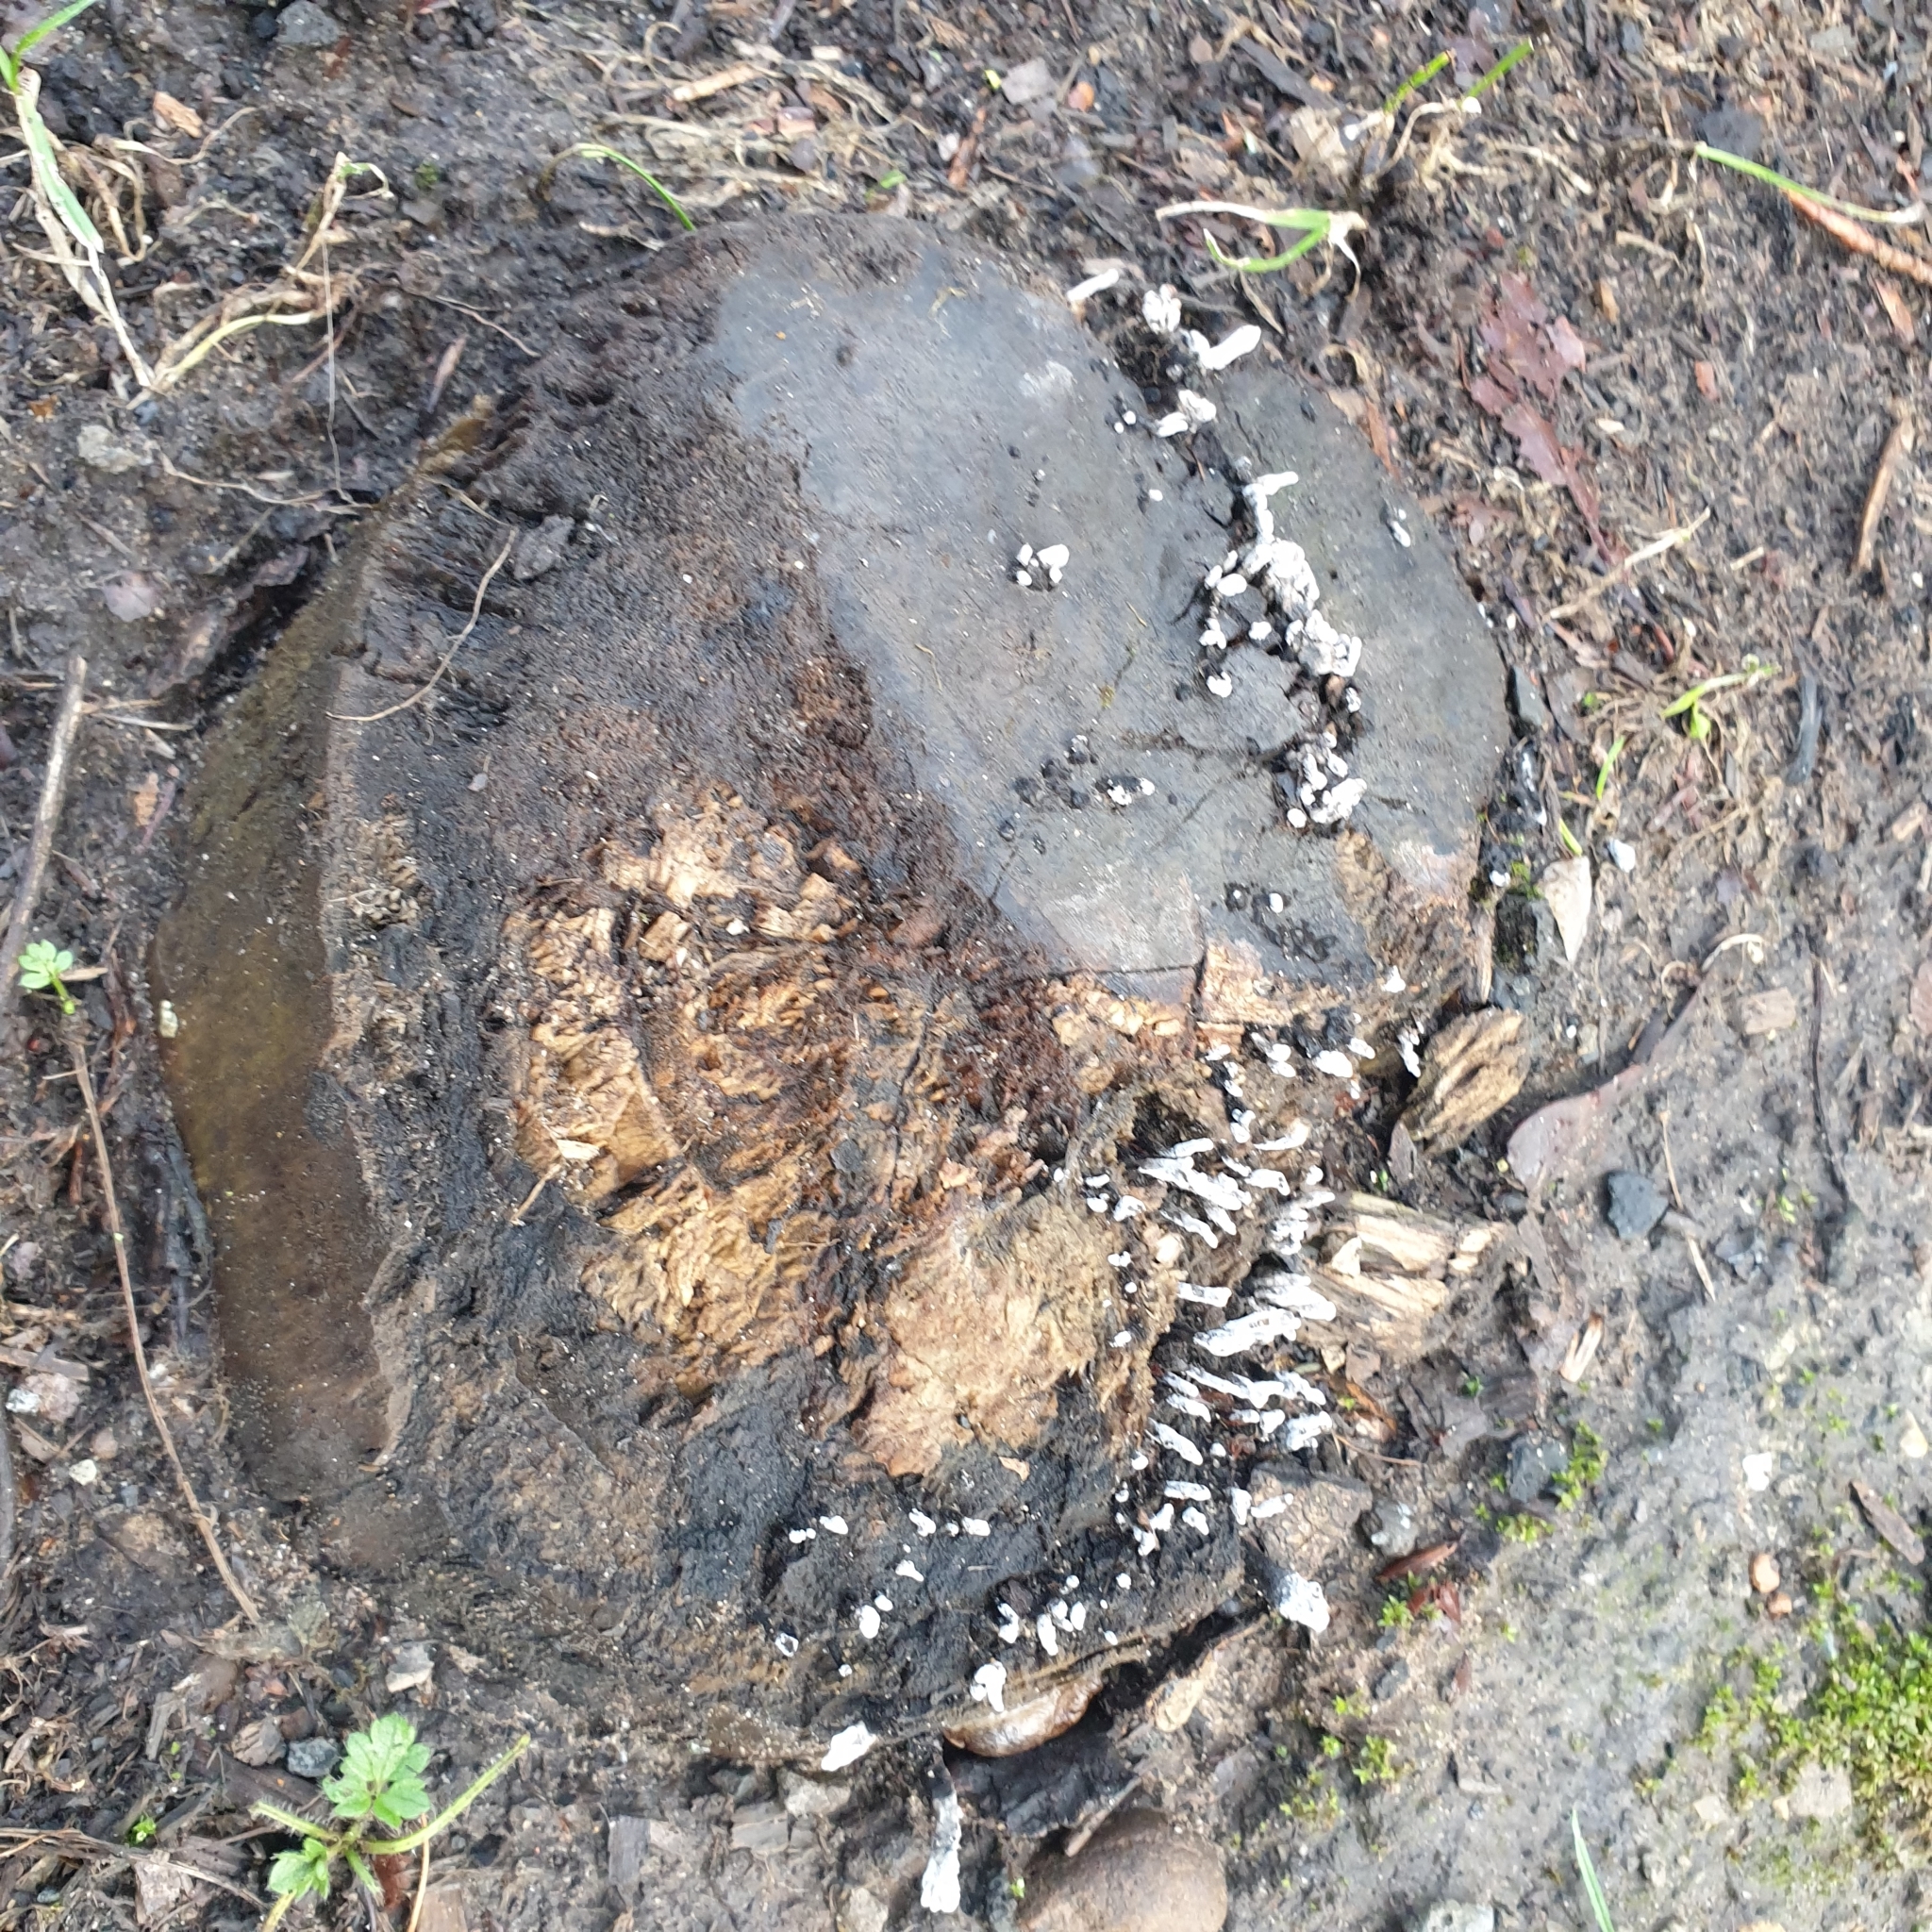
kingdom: Fungi
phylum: Ascomycota
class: Sordariomycetes
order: Xylariales
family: Xylariaceae
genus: Xylaria
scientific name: Xylaria hypoxylon
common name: Candle-snuff fungus
